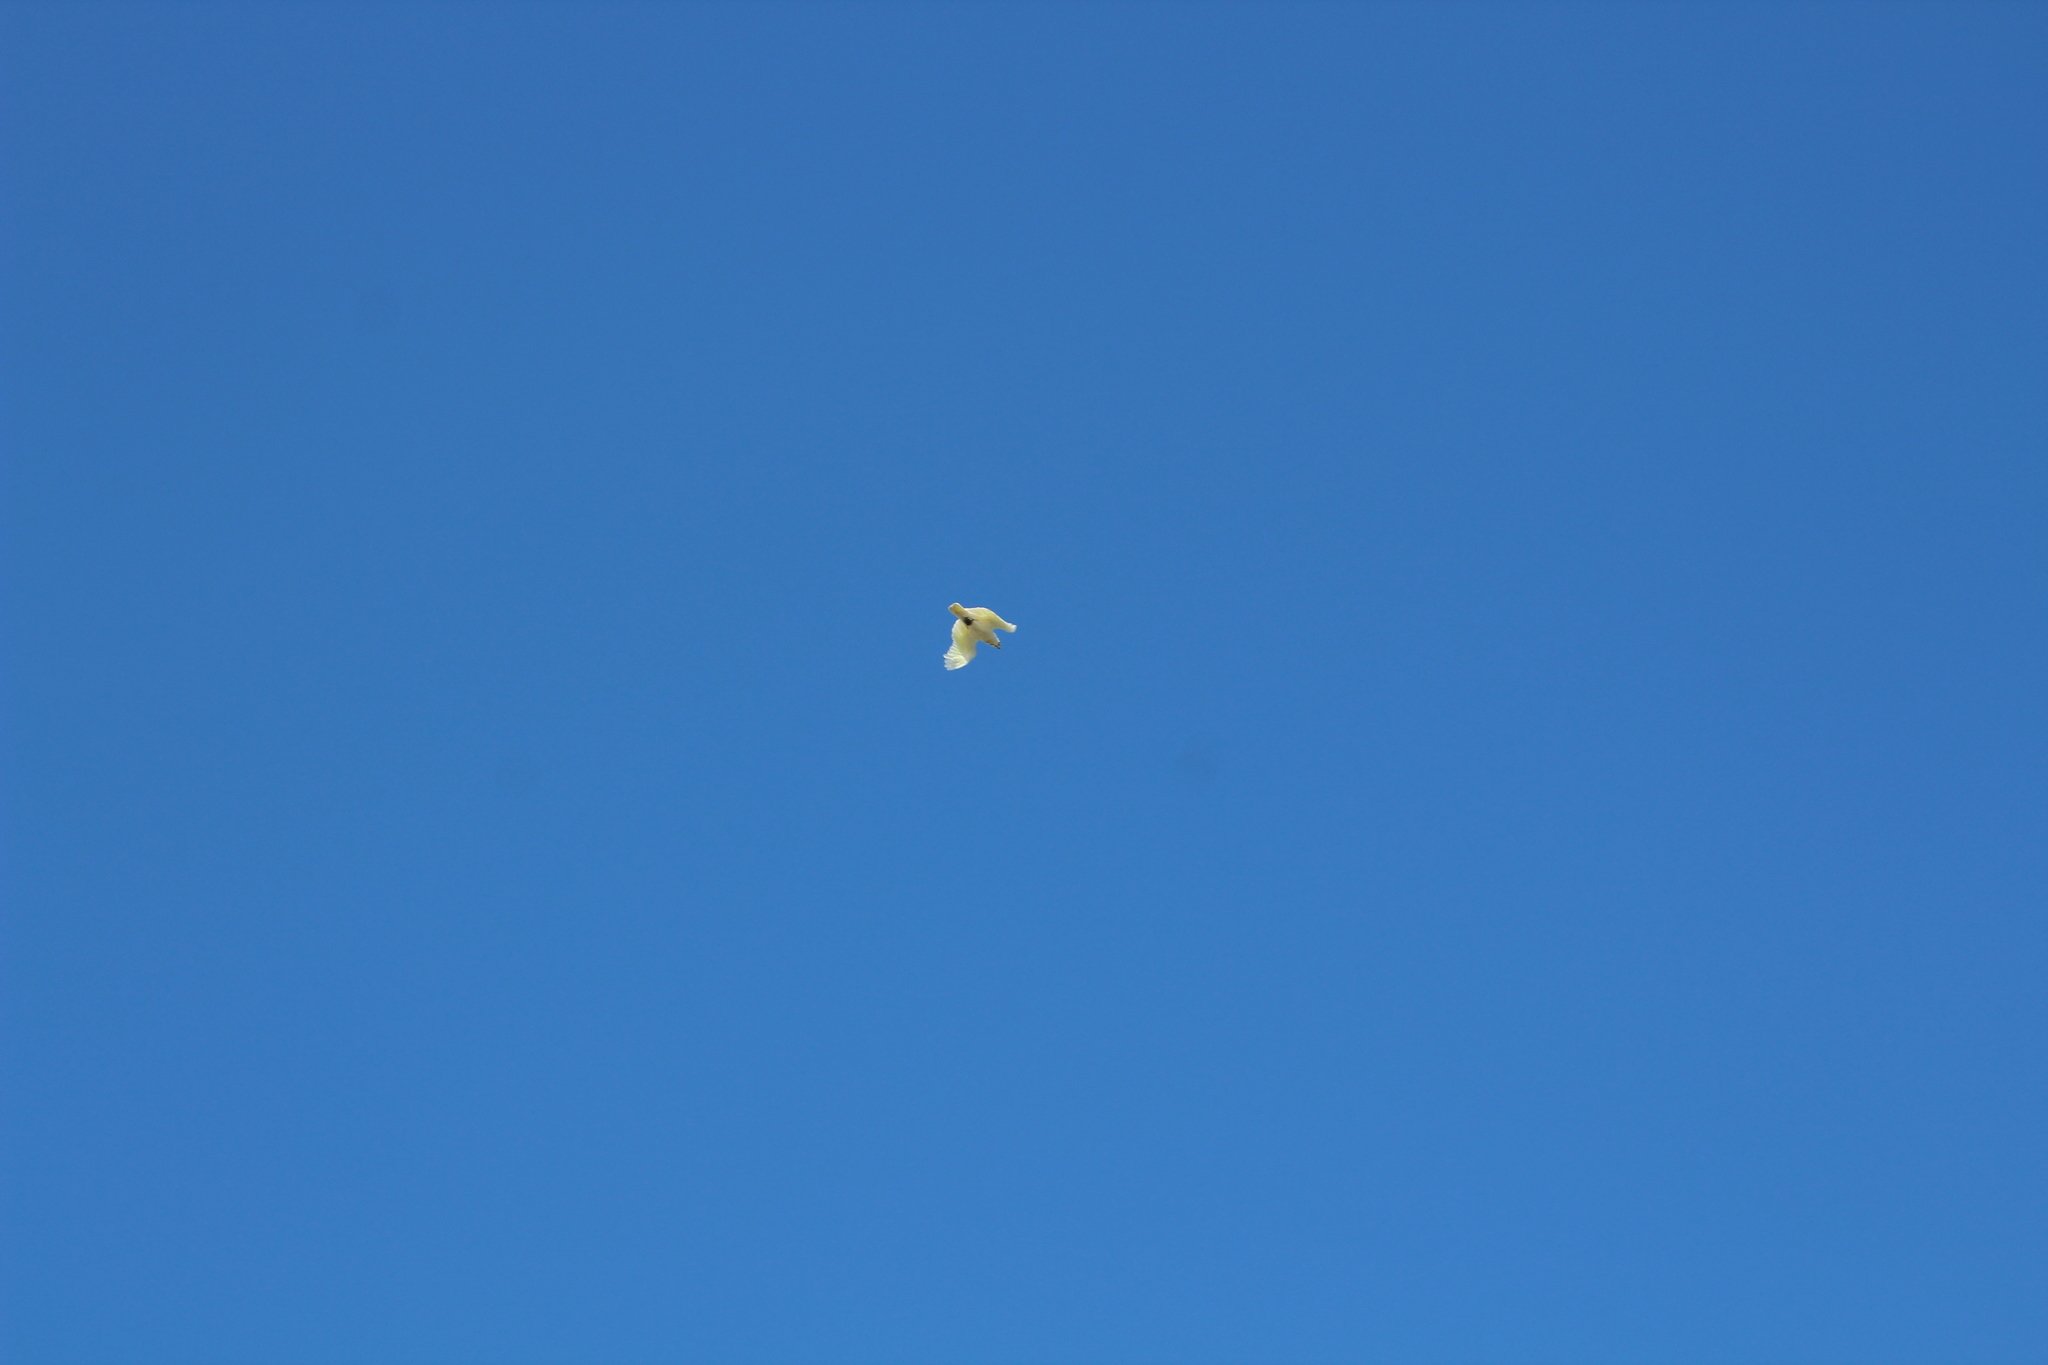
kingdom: Animalia
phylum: Chordata
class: Aves
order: Psittaciformes
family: Psittacidae
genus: Cacatua
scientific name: Cacatua galerita
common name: Sulphur-crested cockatoo
